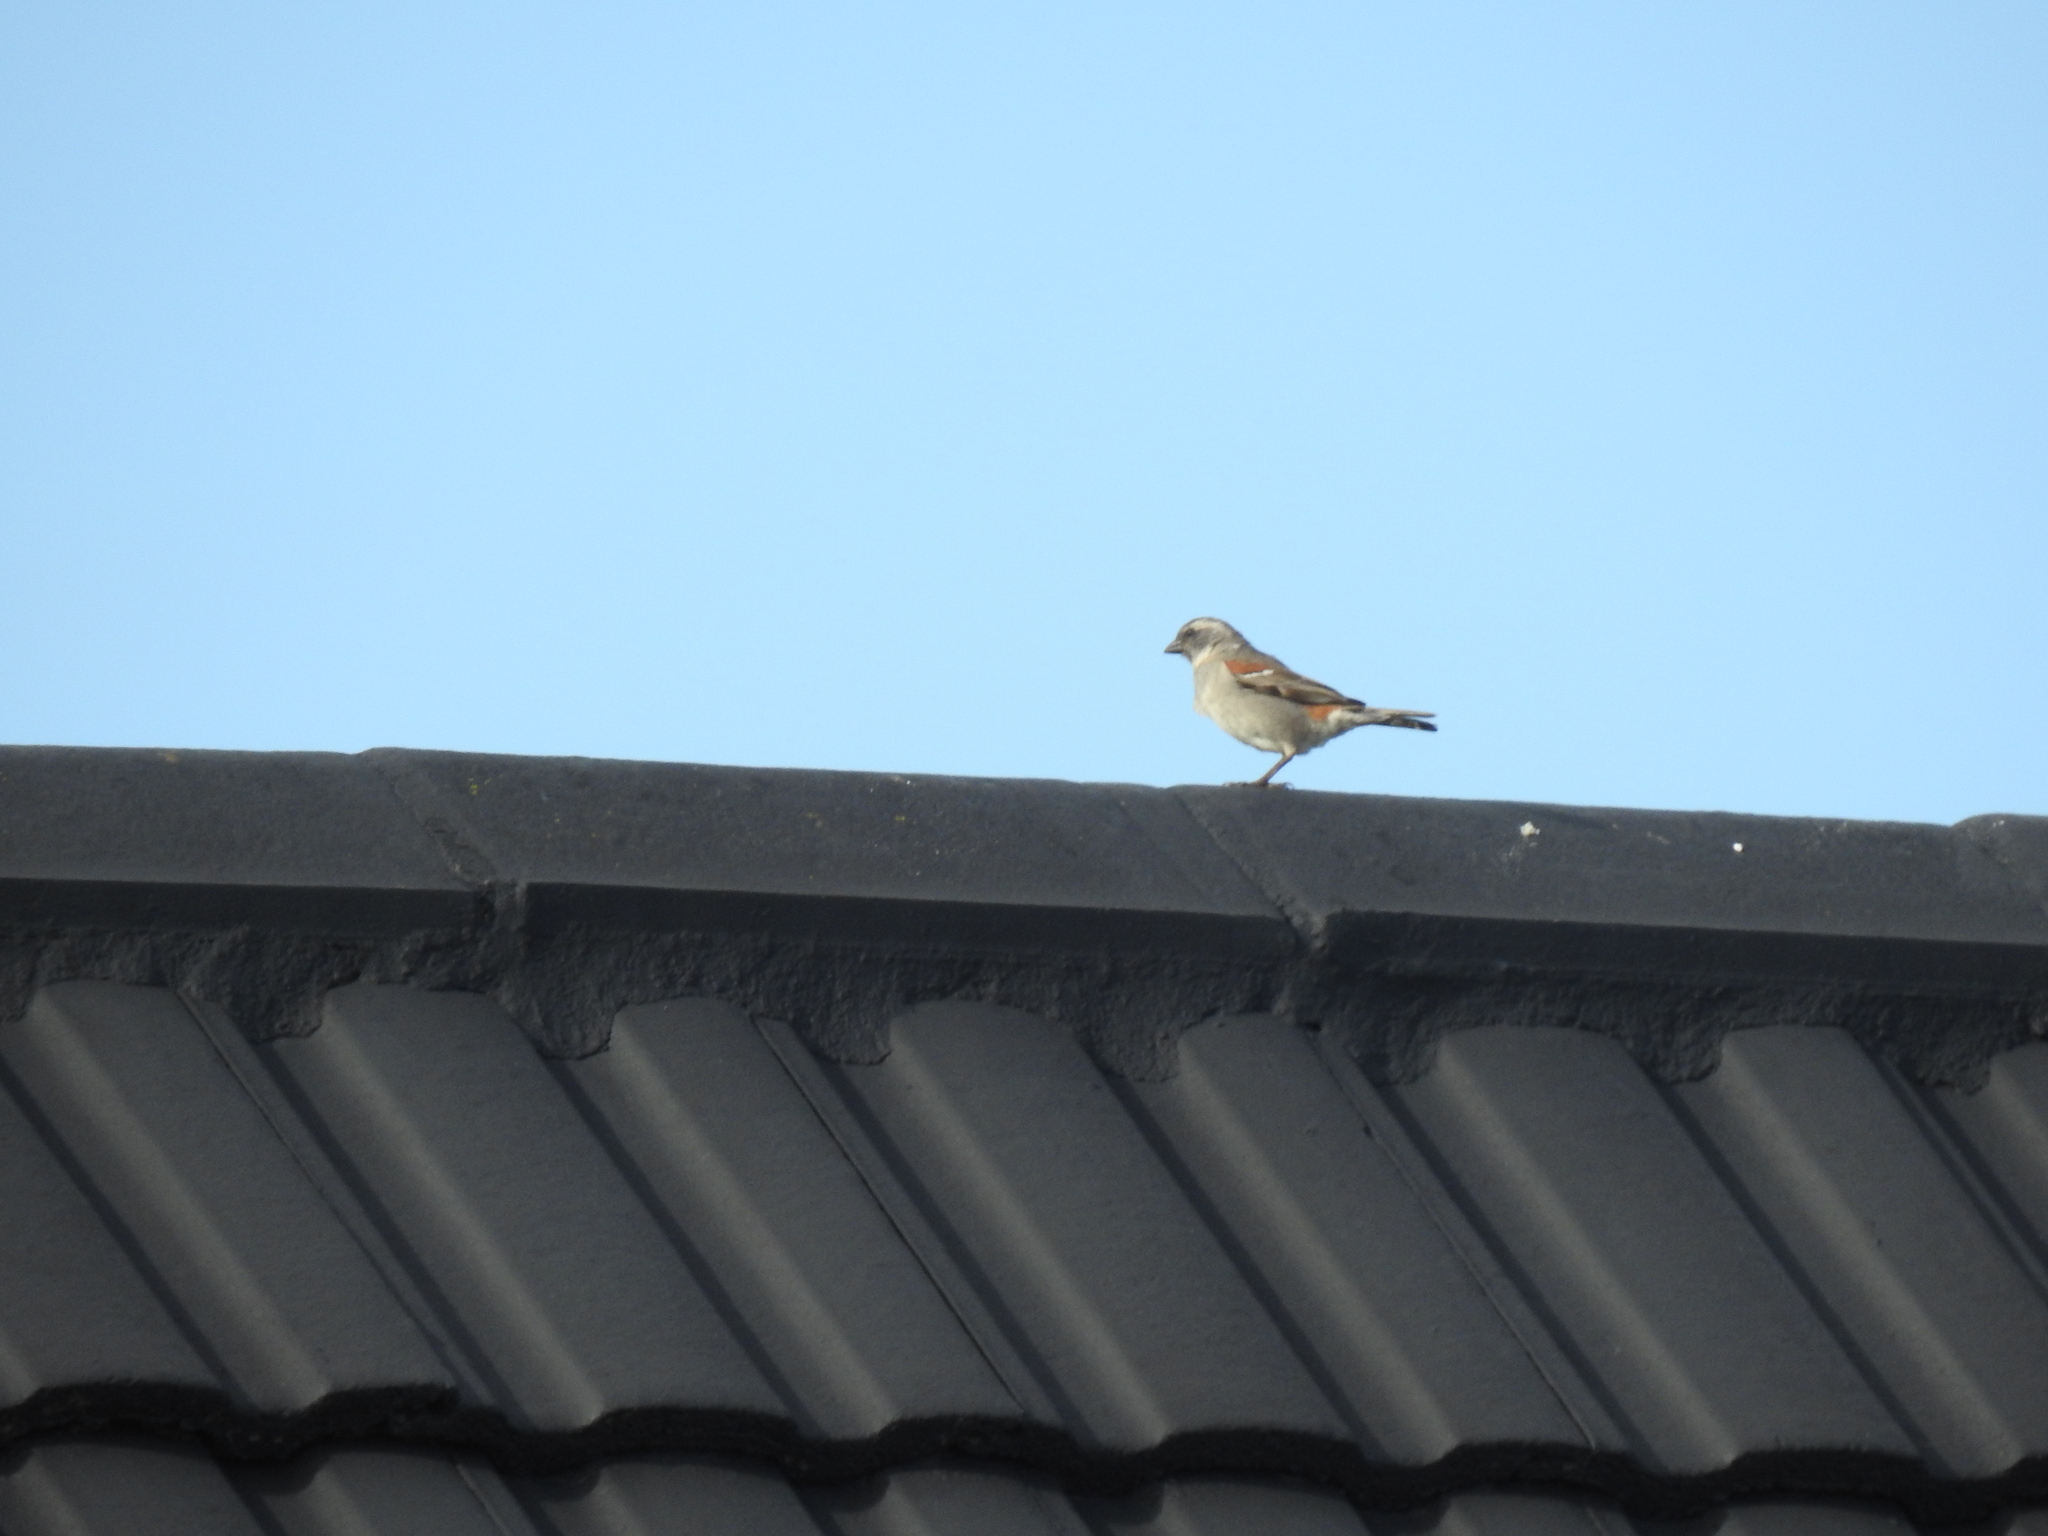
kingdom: Animalia
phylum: Chordata
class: Aves
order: Passeriformes
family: Passeridae
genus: Passer
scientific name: Passer melanurus
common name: Cape sparrow
